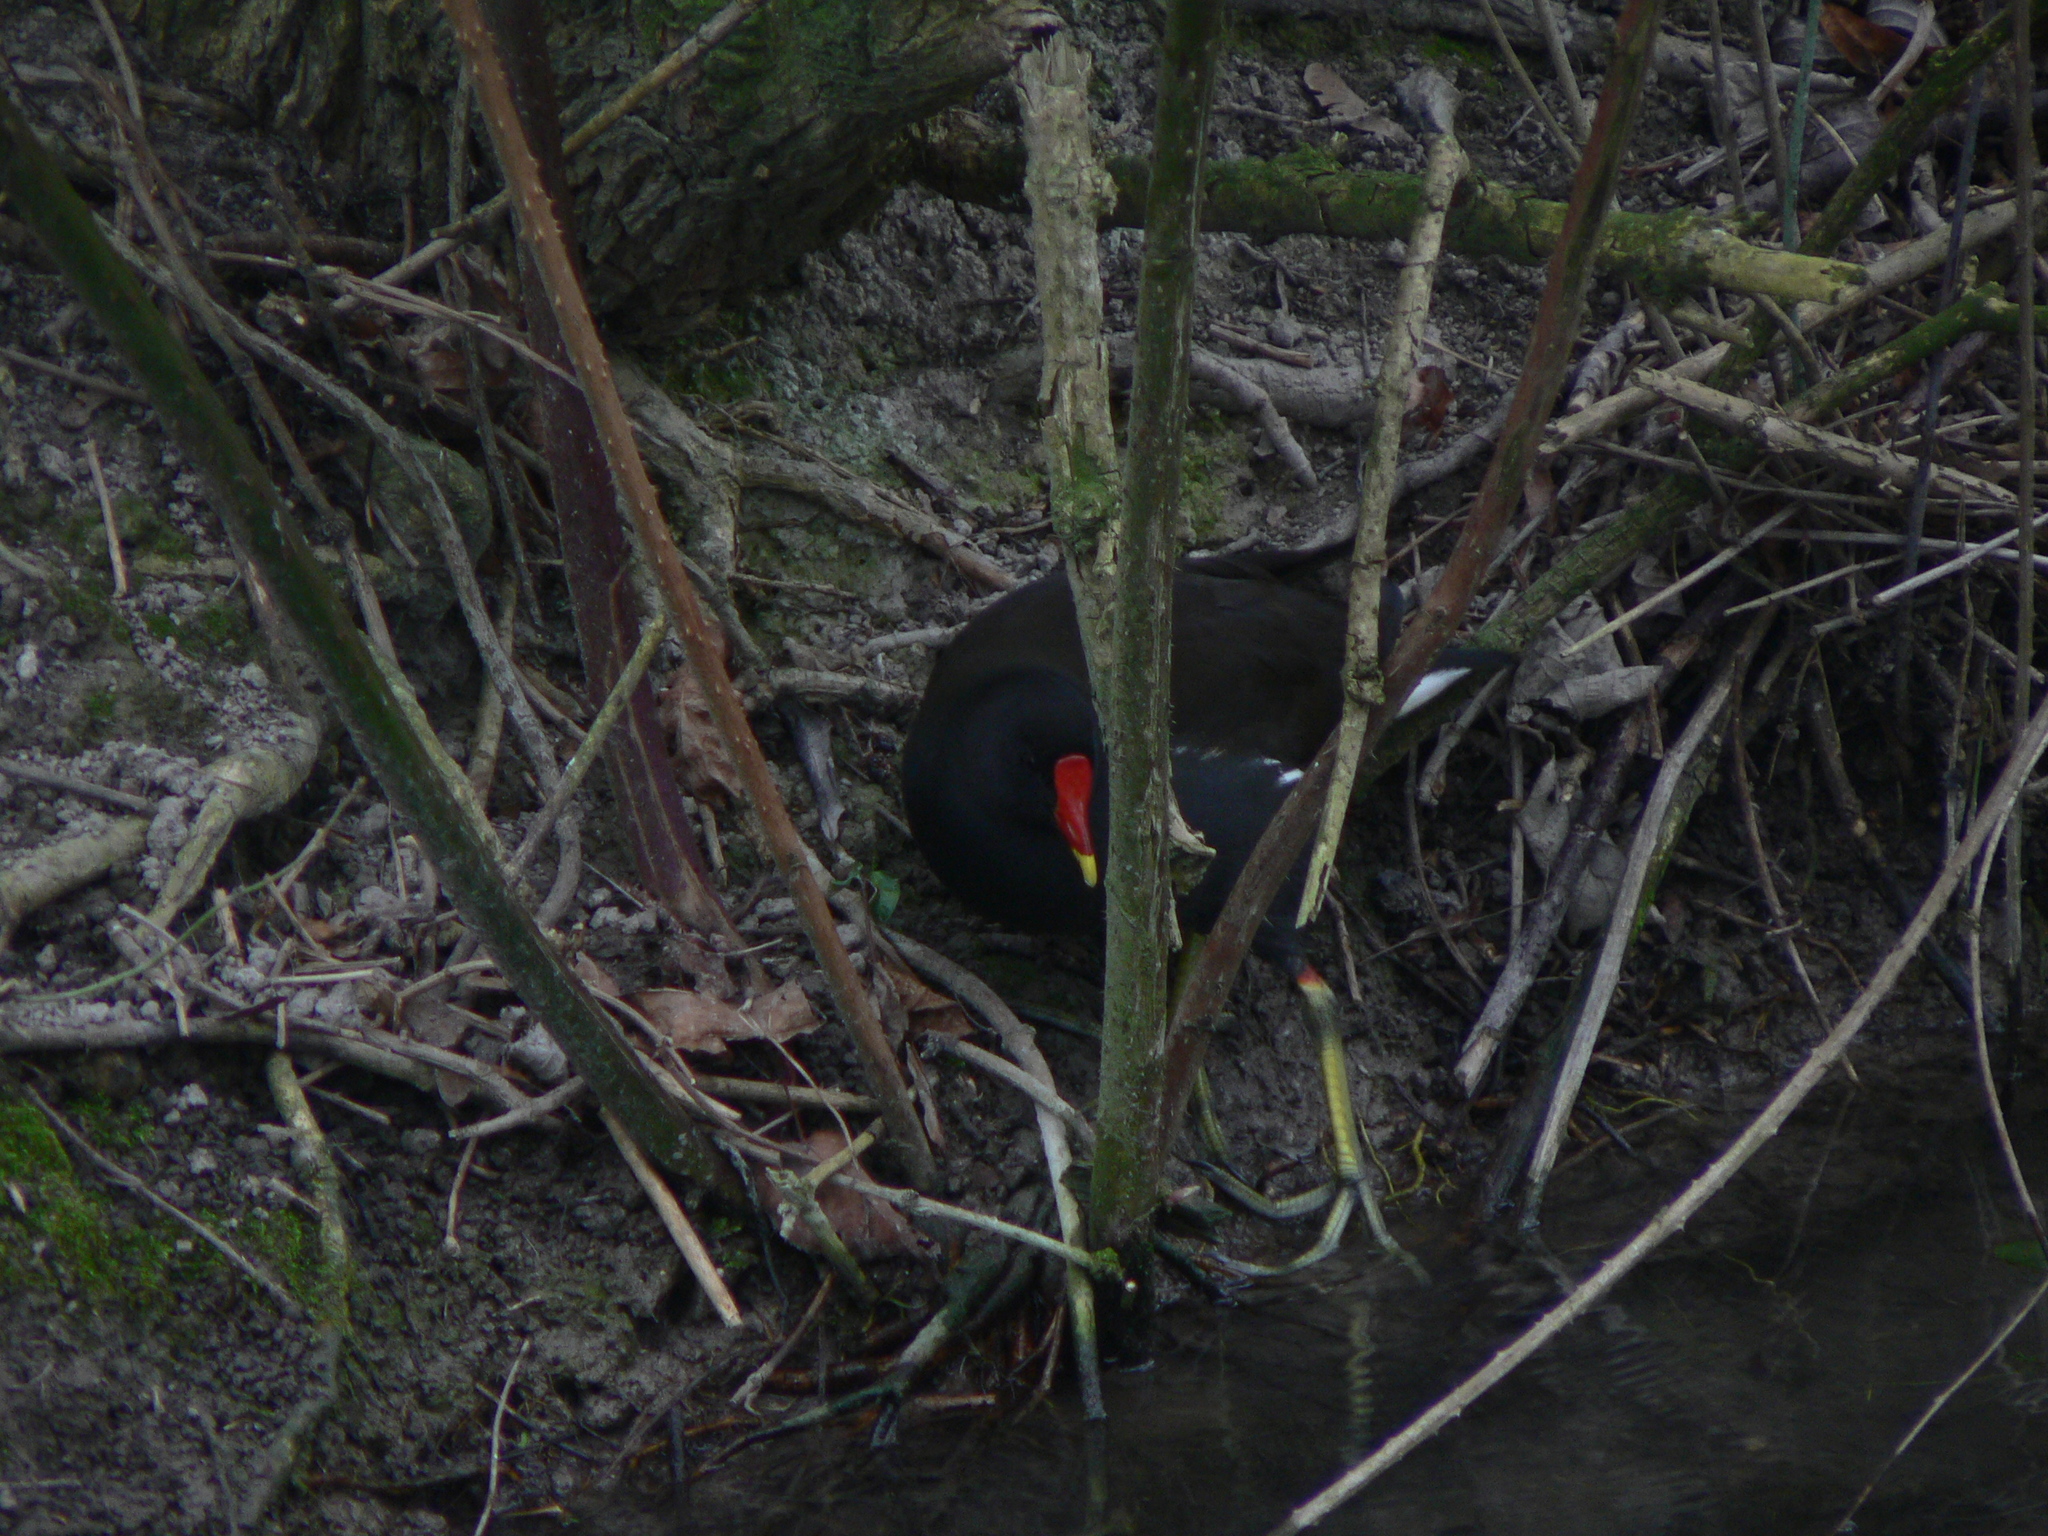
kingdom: Animalia
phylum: Chordata
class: Aves
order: Gruiformes
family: Rallidae
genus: Gallinula
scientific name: Gallinula chloropus
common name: Common moorhen
